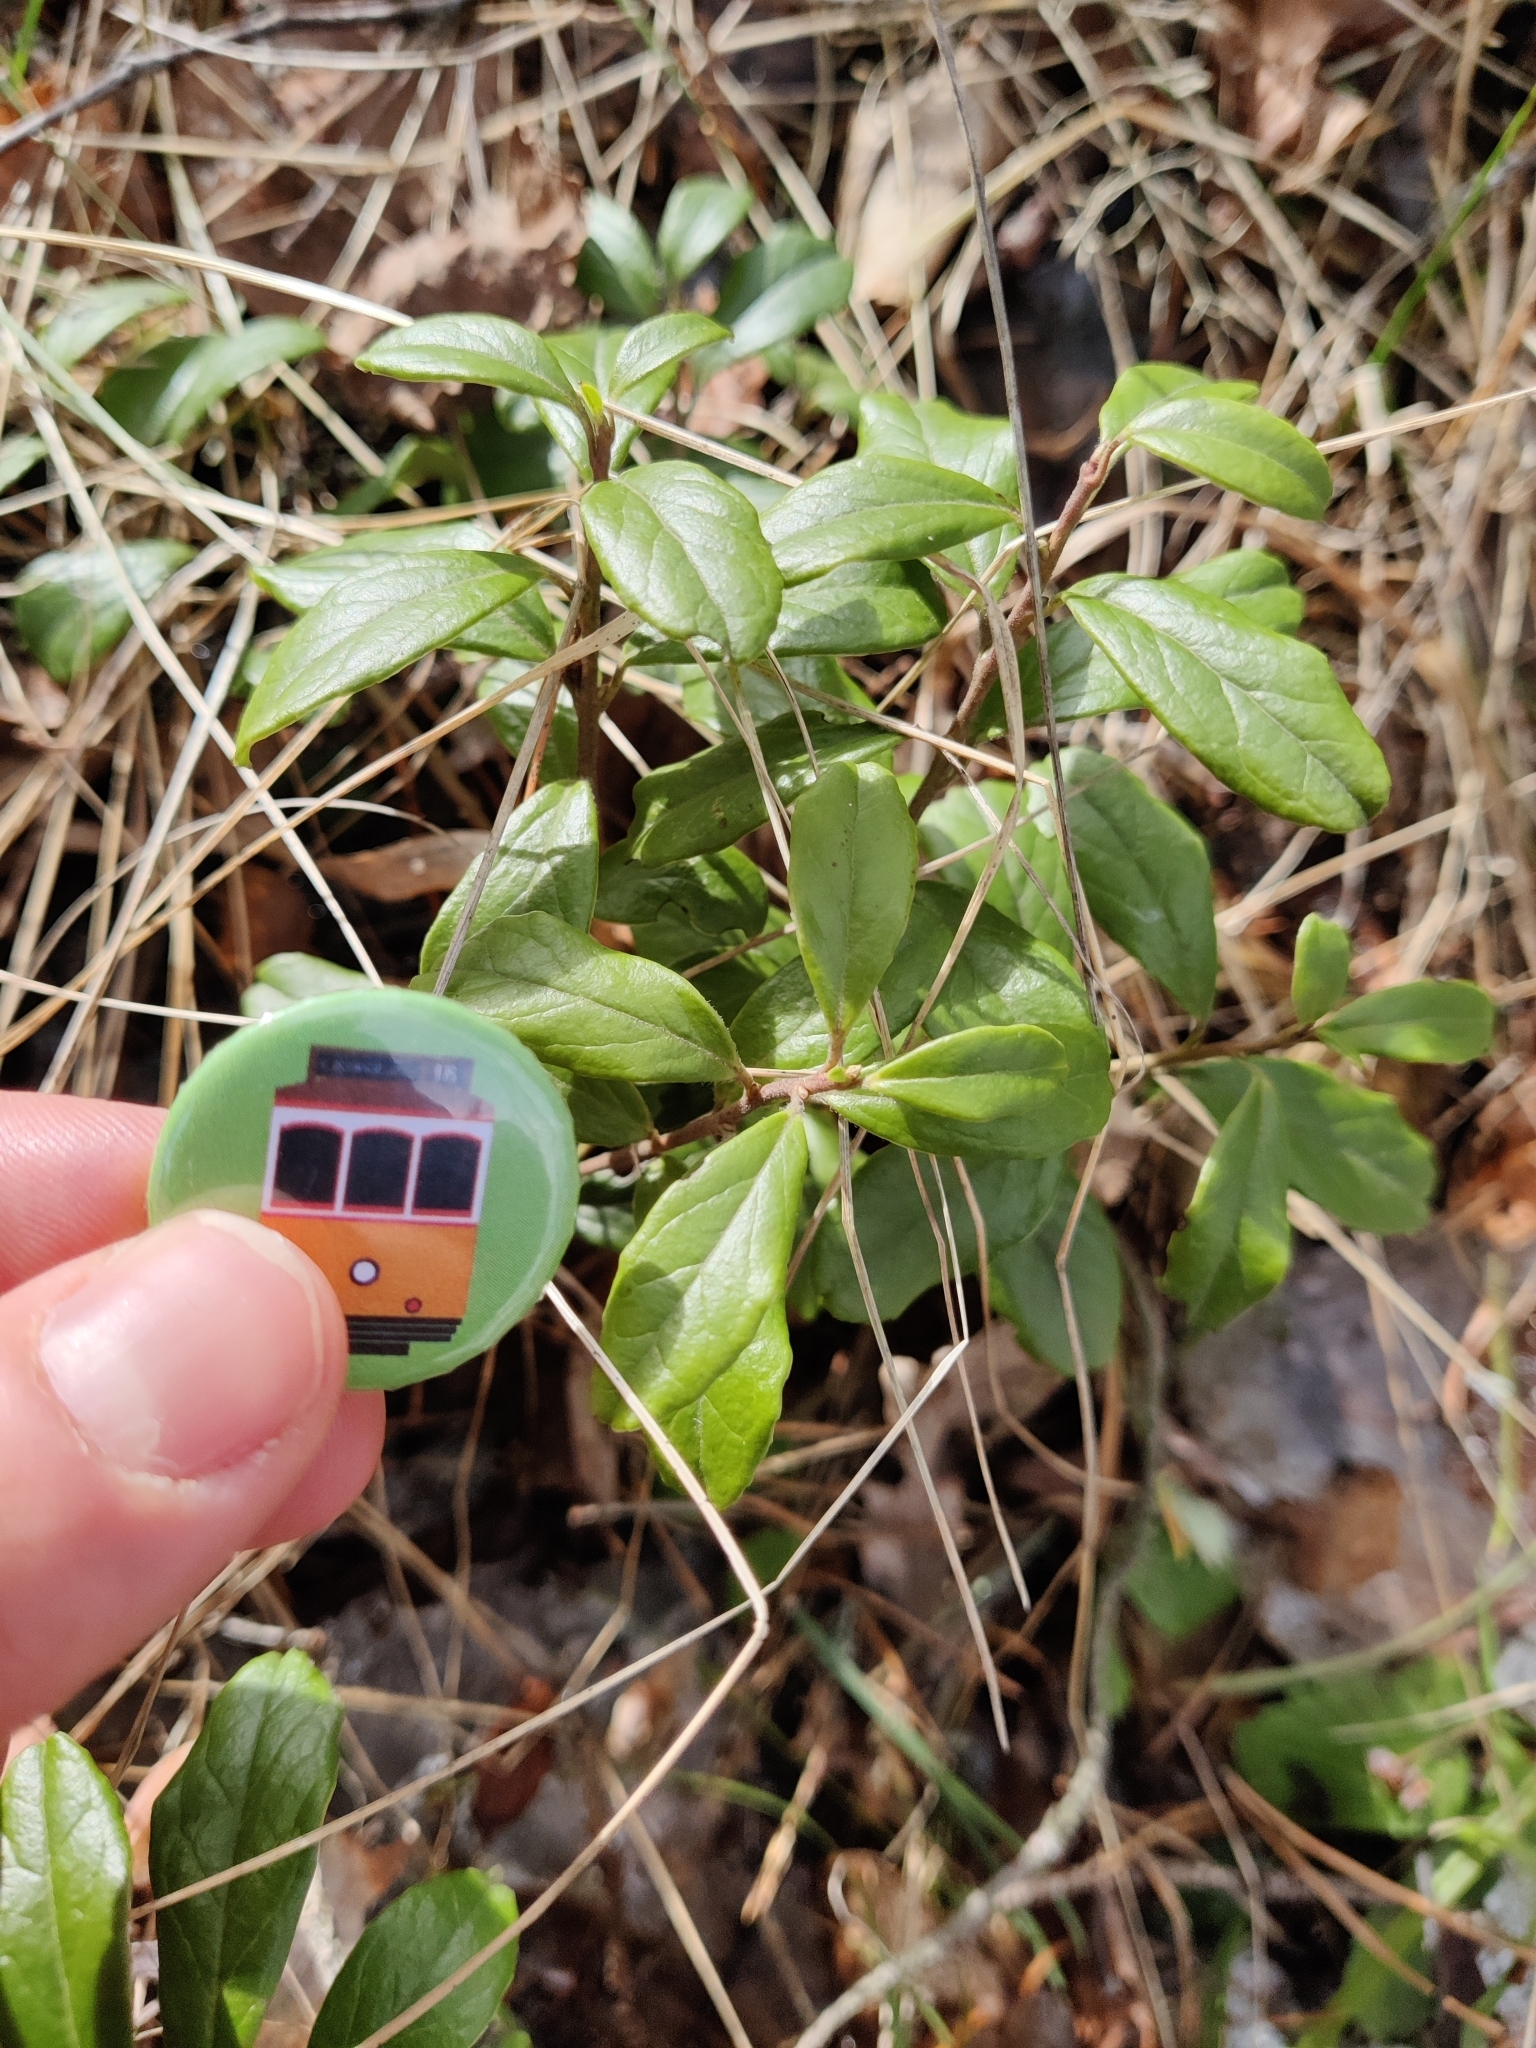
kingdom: Plantae
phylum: Tracheophyta
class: Magnoliopsida
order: Ericales
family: Ericaceae
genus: Vaccinium
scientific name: Vaccinium vitis-idaea
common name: Cowberry
